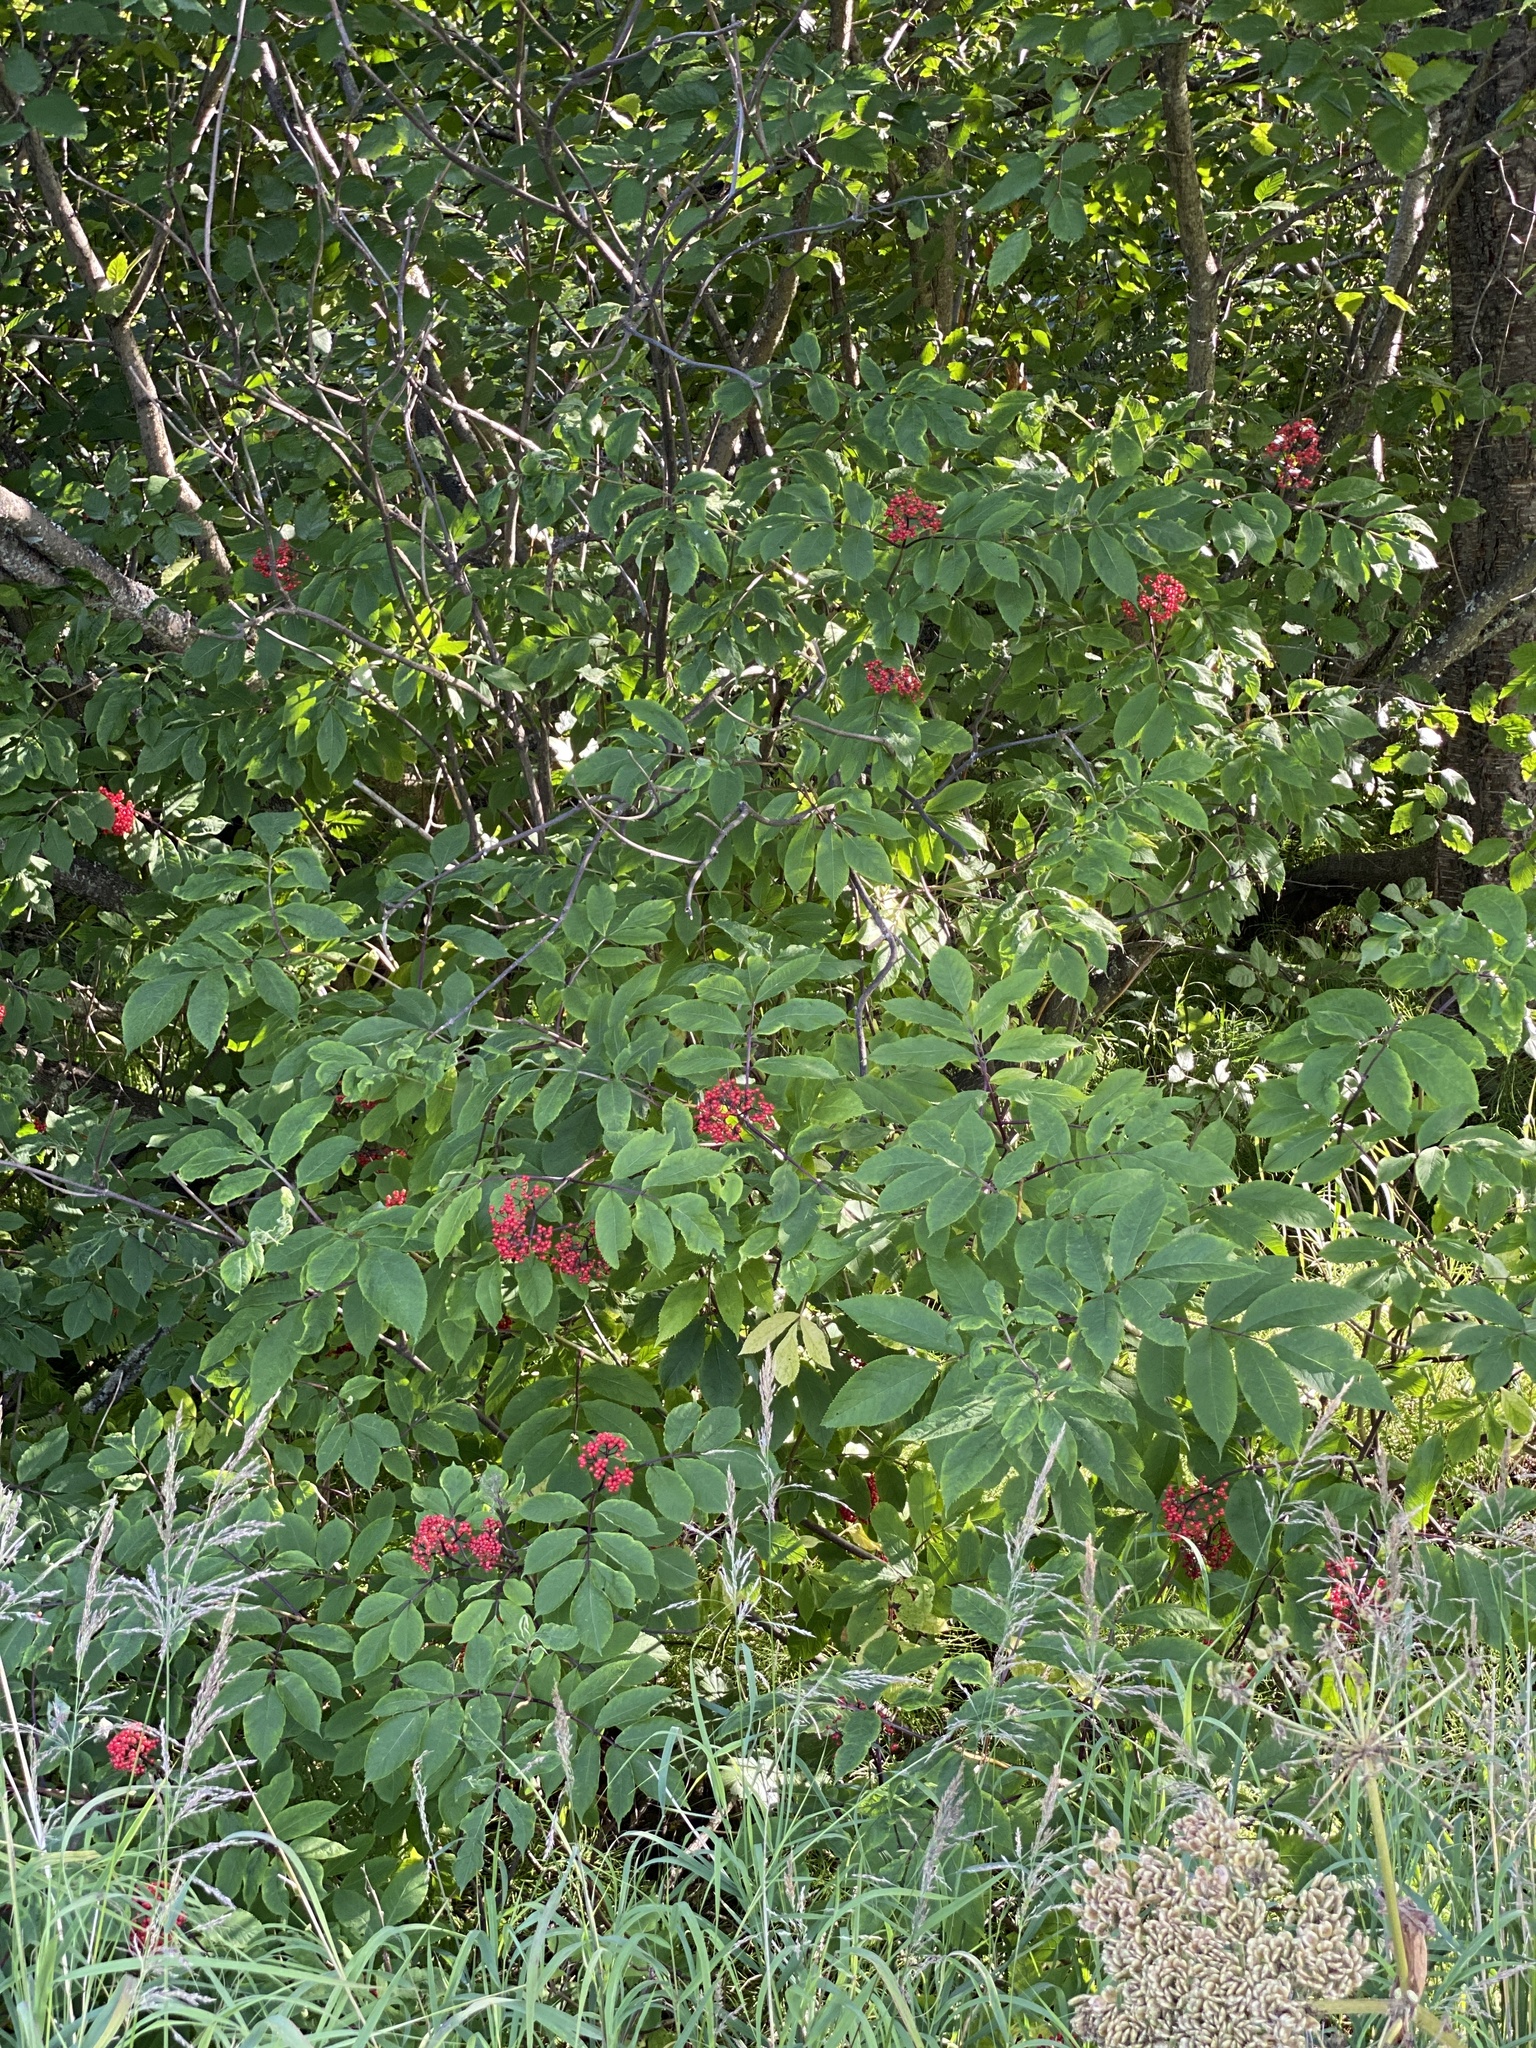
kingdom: Plantae
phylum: Tracheophyta
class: Magnoliopsida
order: Dipsacales
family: Viburnaceae
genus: Sambucus
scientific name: Sambucus racemosa
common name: Red-berried elder
